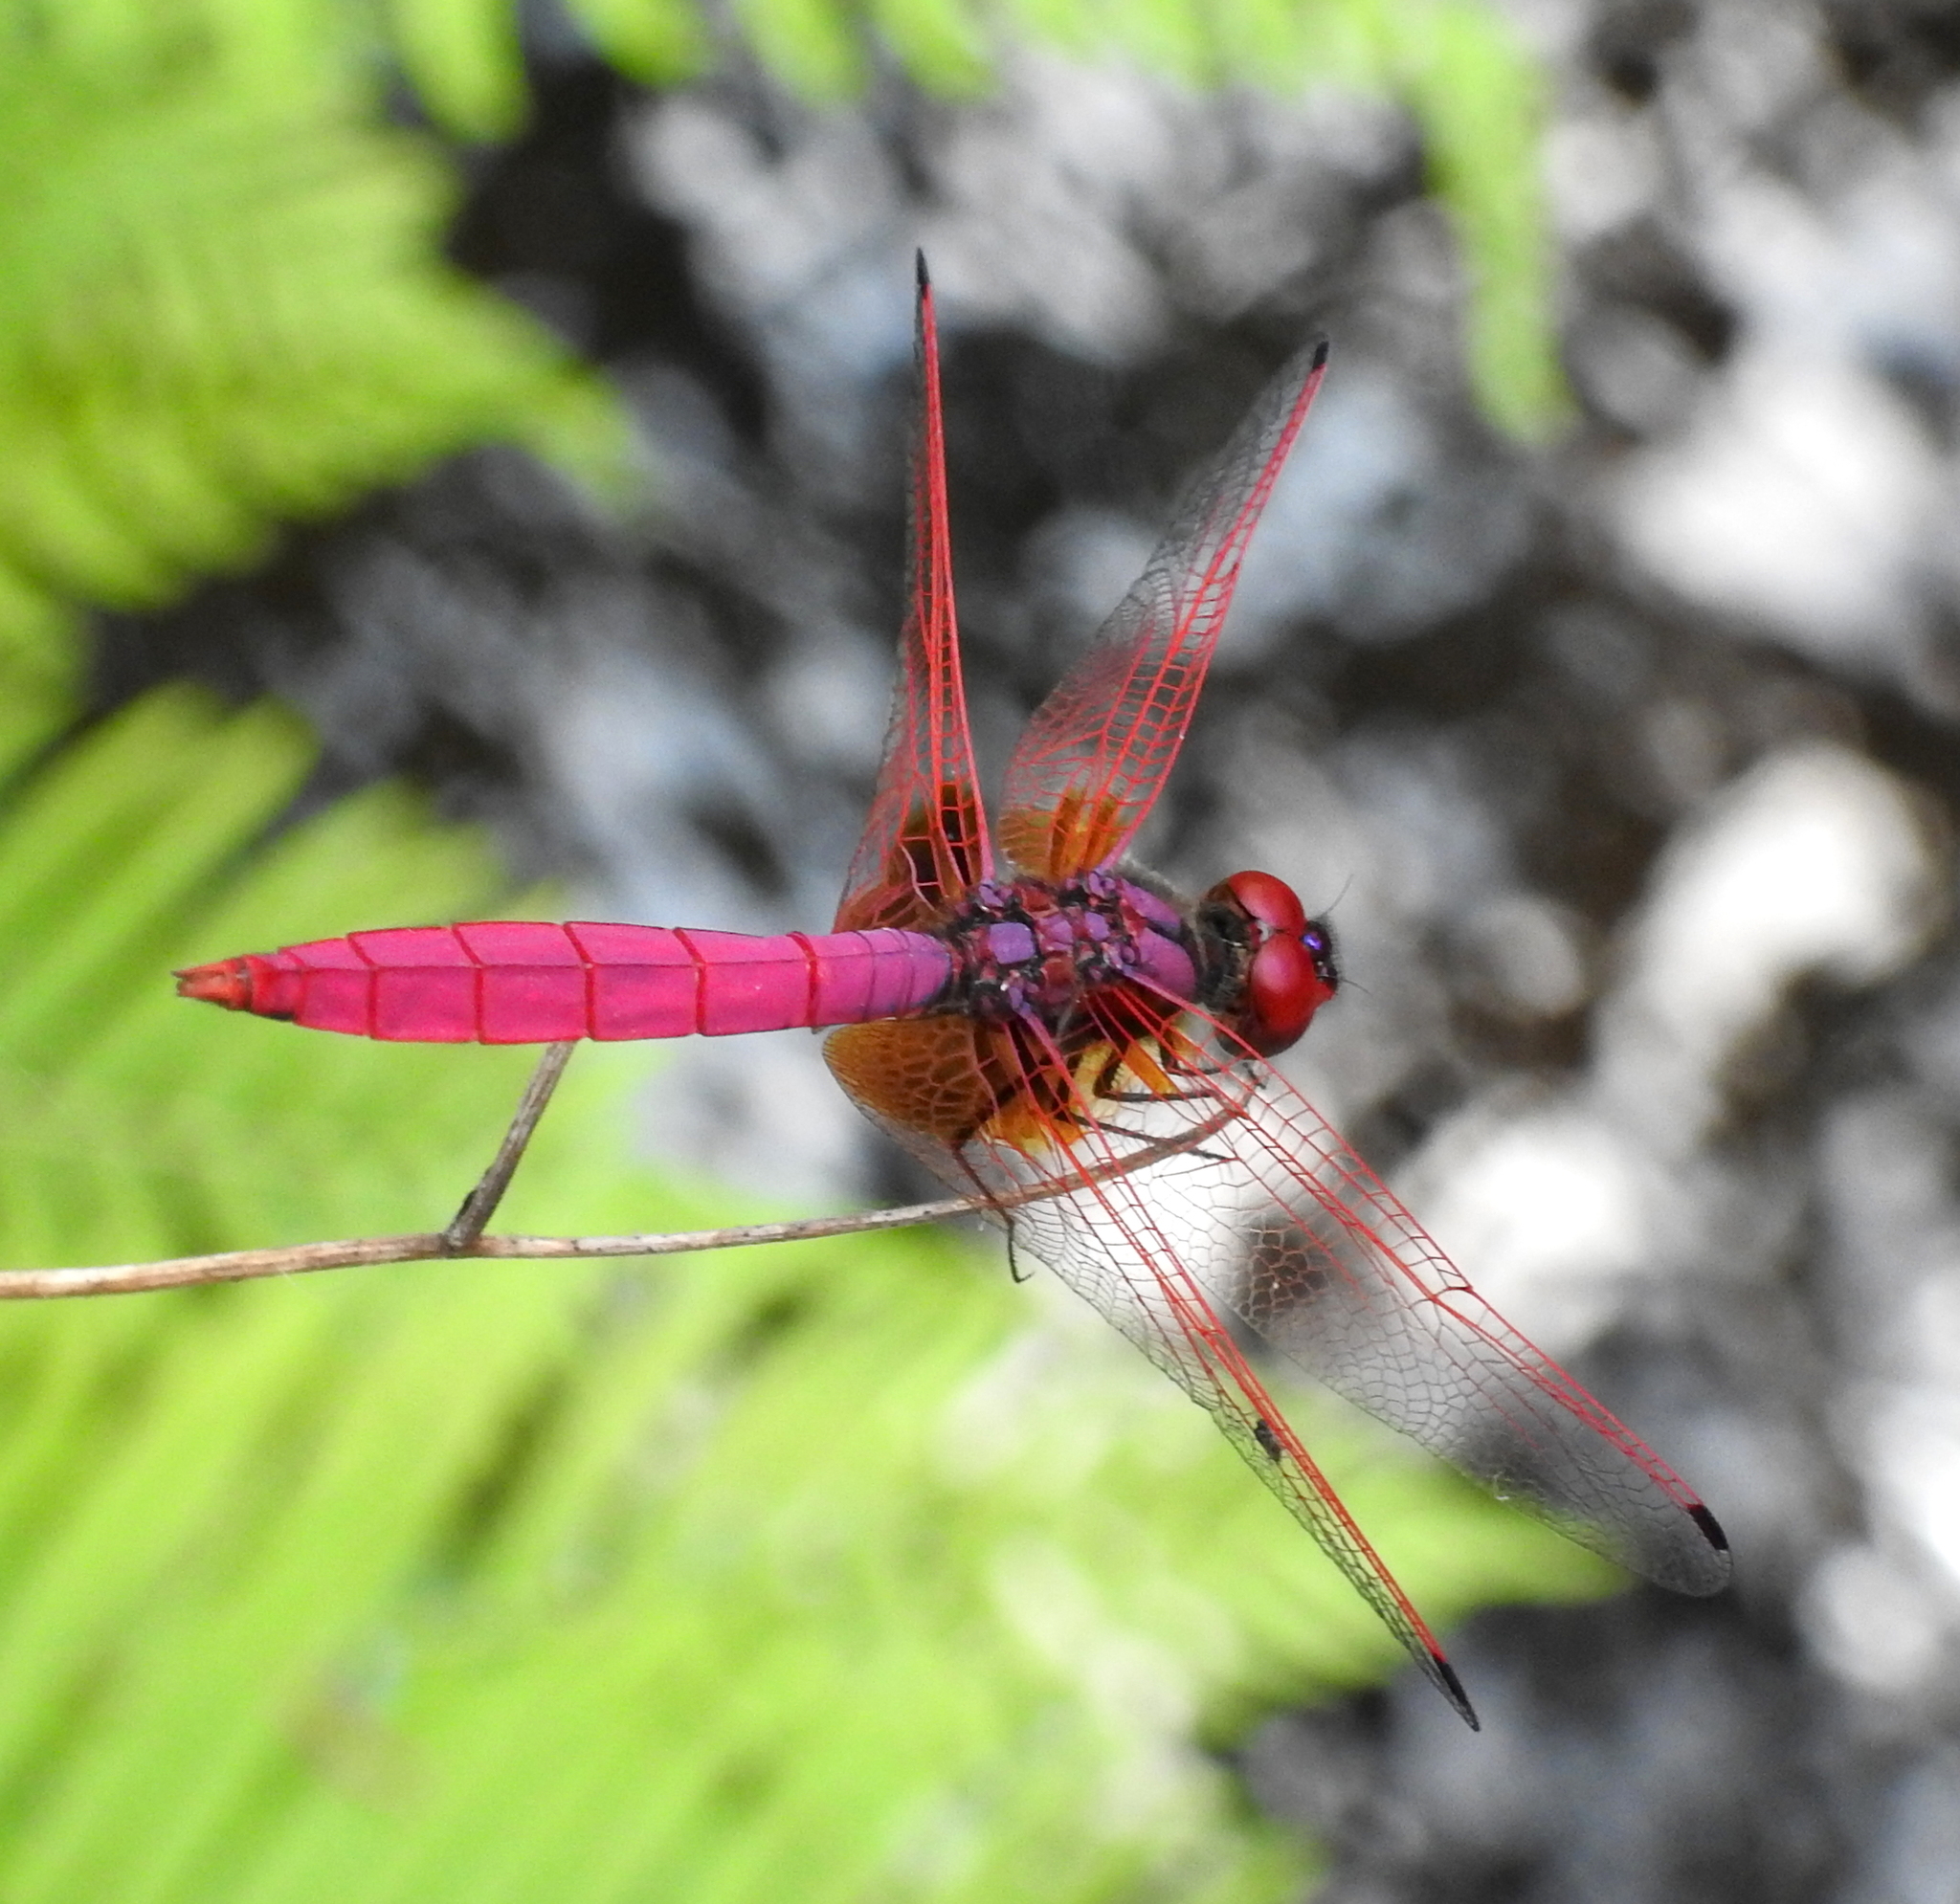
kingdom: Animalia
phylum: Arthropoda
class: Insecta
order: Odonata
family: Libellulidae
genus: Trithemis
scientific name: Trithemis aurora
